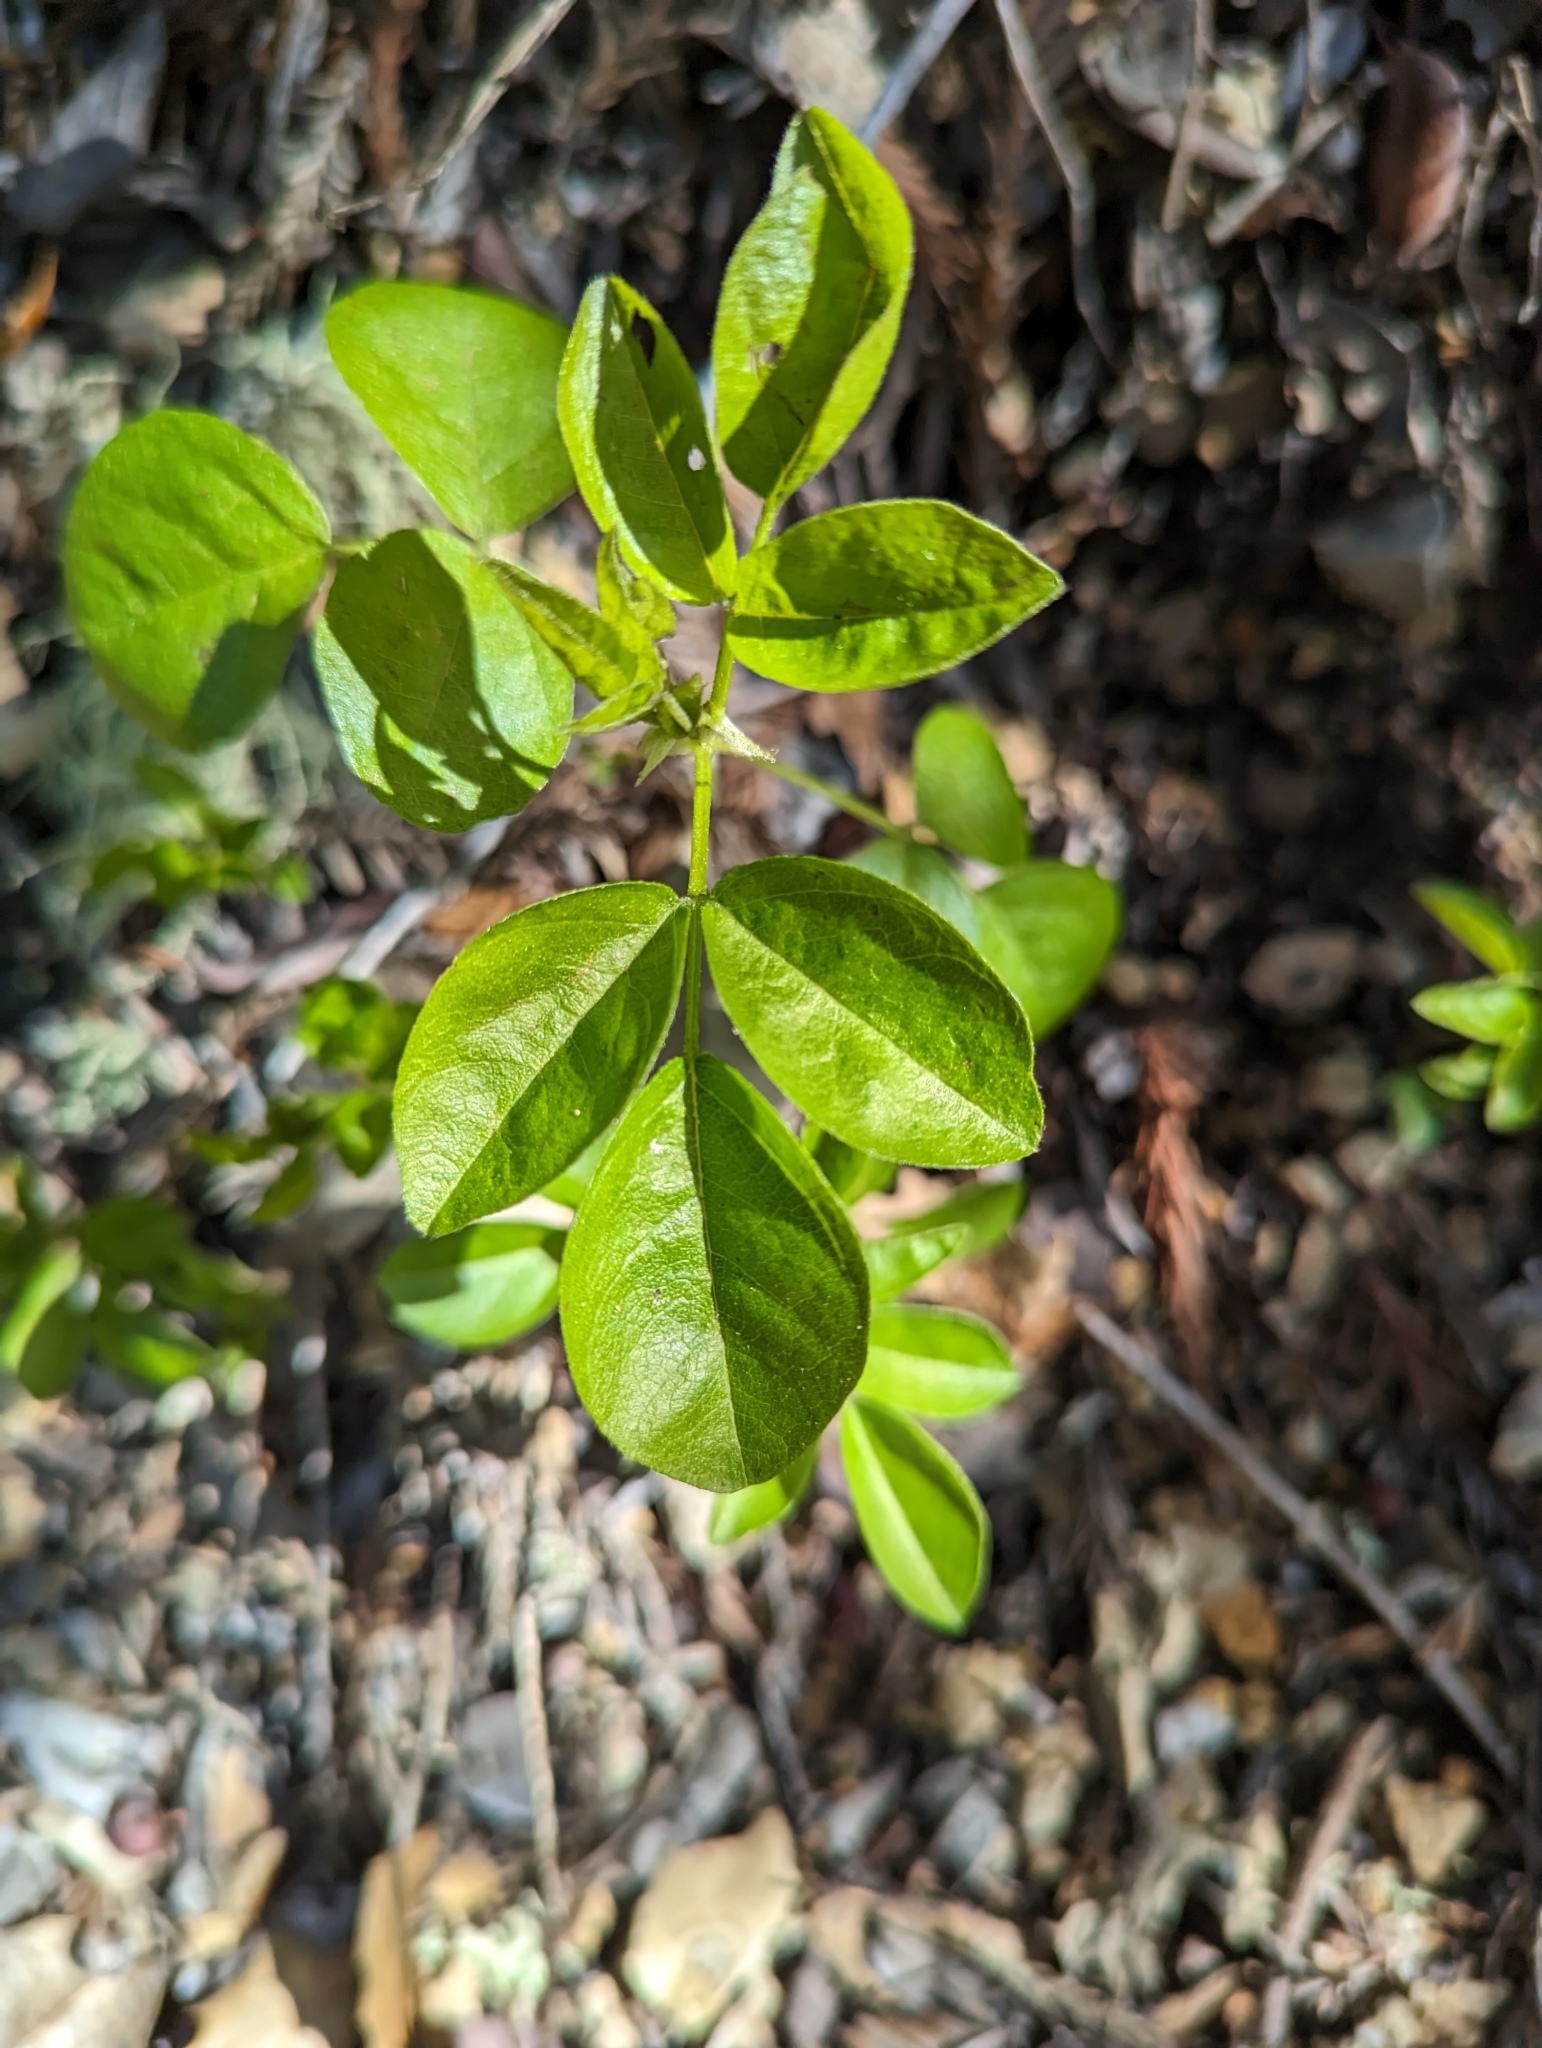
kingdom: Plantae
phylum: Tracheophyta
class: Magnoliopsida
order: Fabales
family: Fabaceae
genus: Rupertia
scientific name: Rupertia physodes
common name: California-tea
